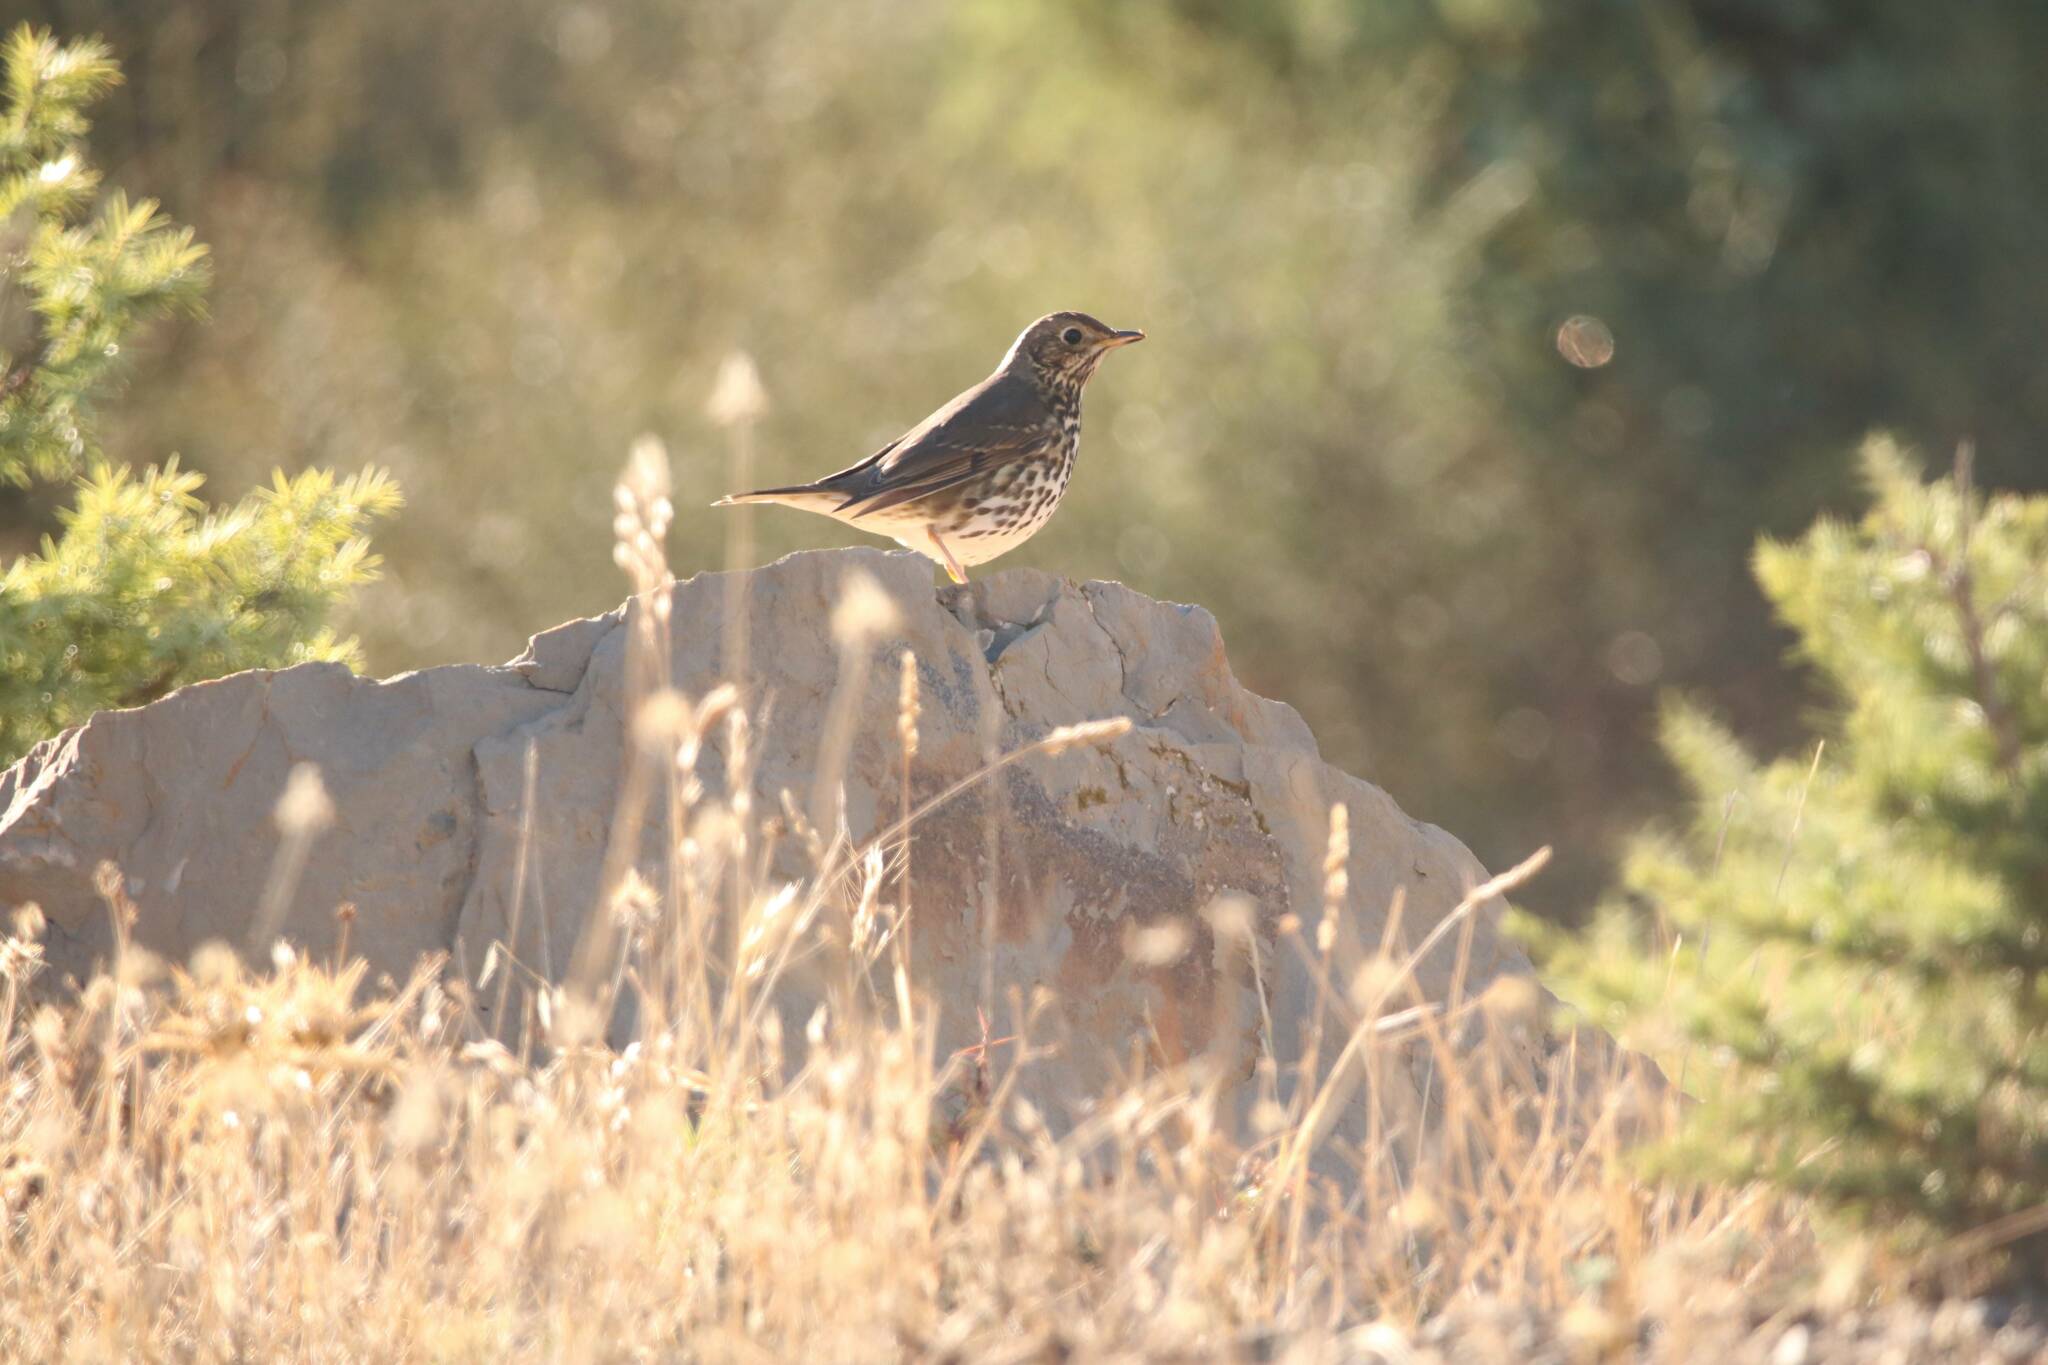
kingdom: Animalia
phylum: Chordata
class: Aves
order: Passeriformes
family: Turdidae
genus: Turdus
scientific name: Turdus viscivorus
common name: Mistle thrush
